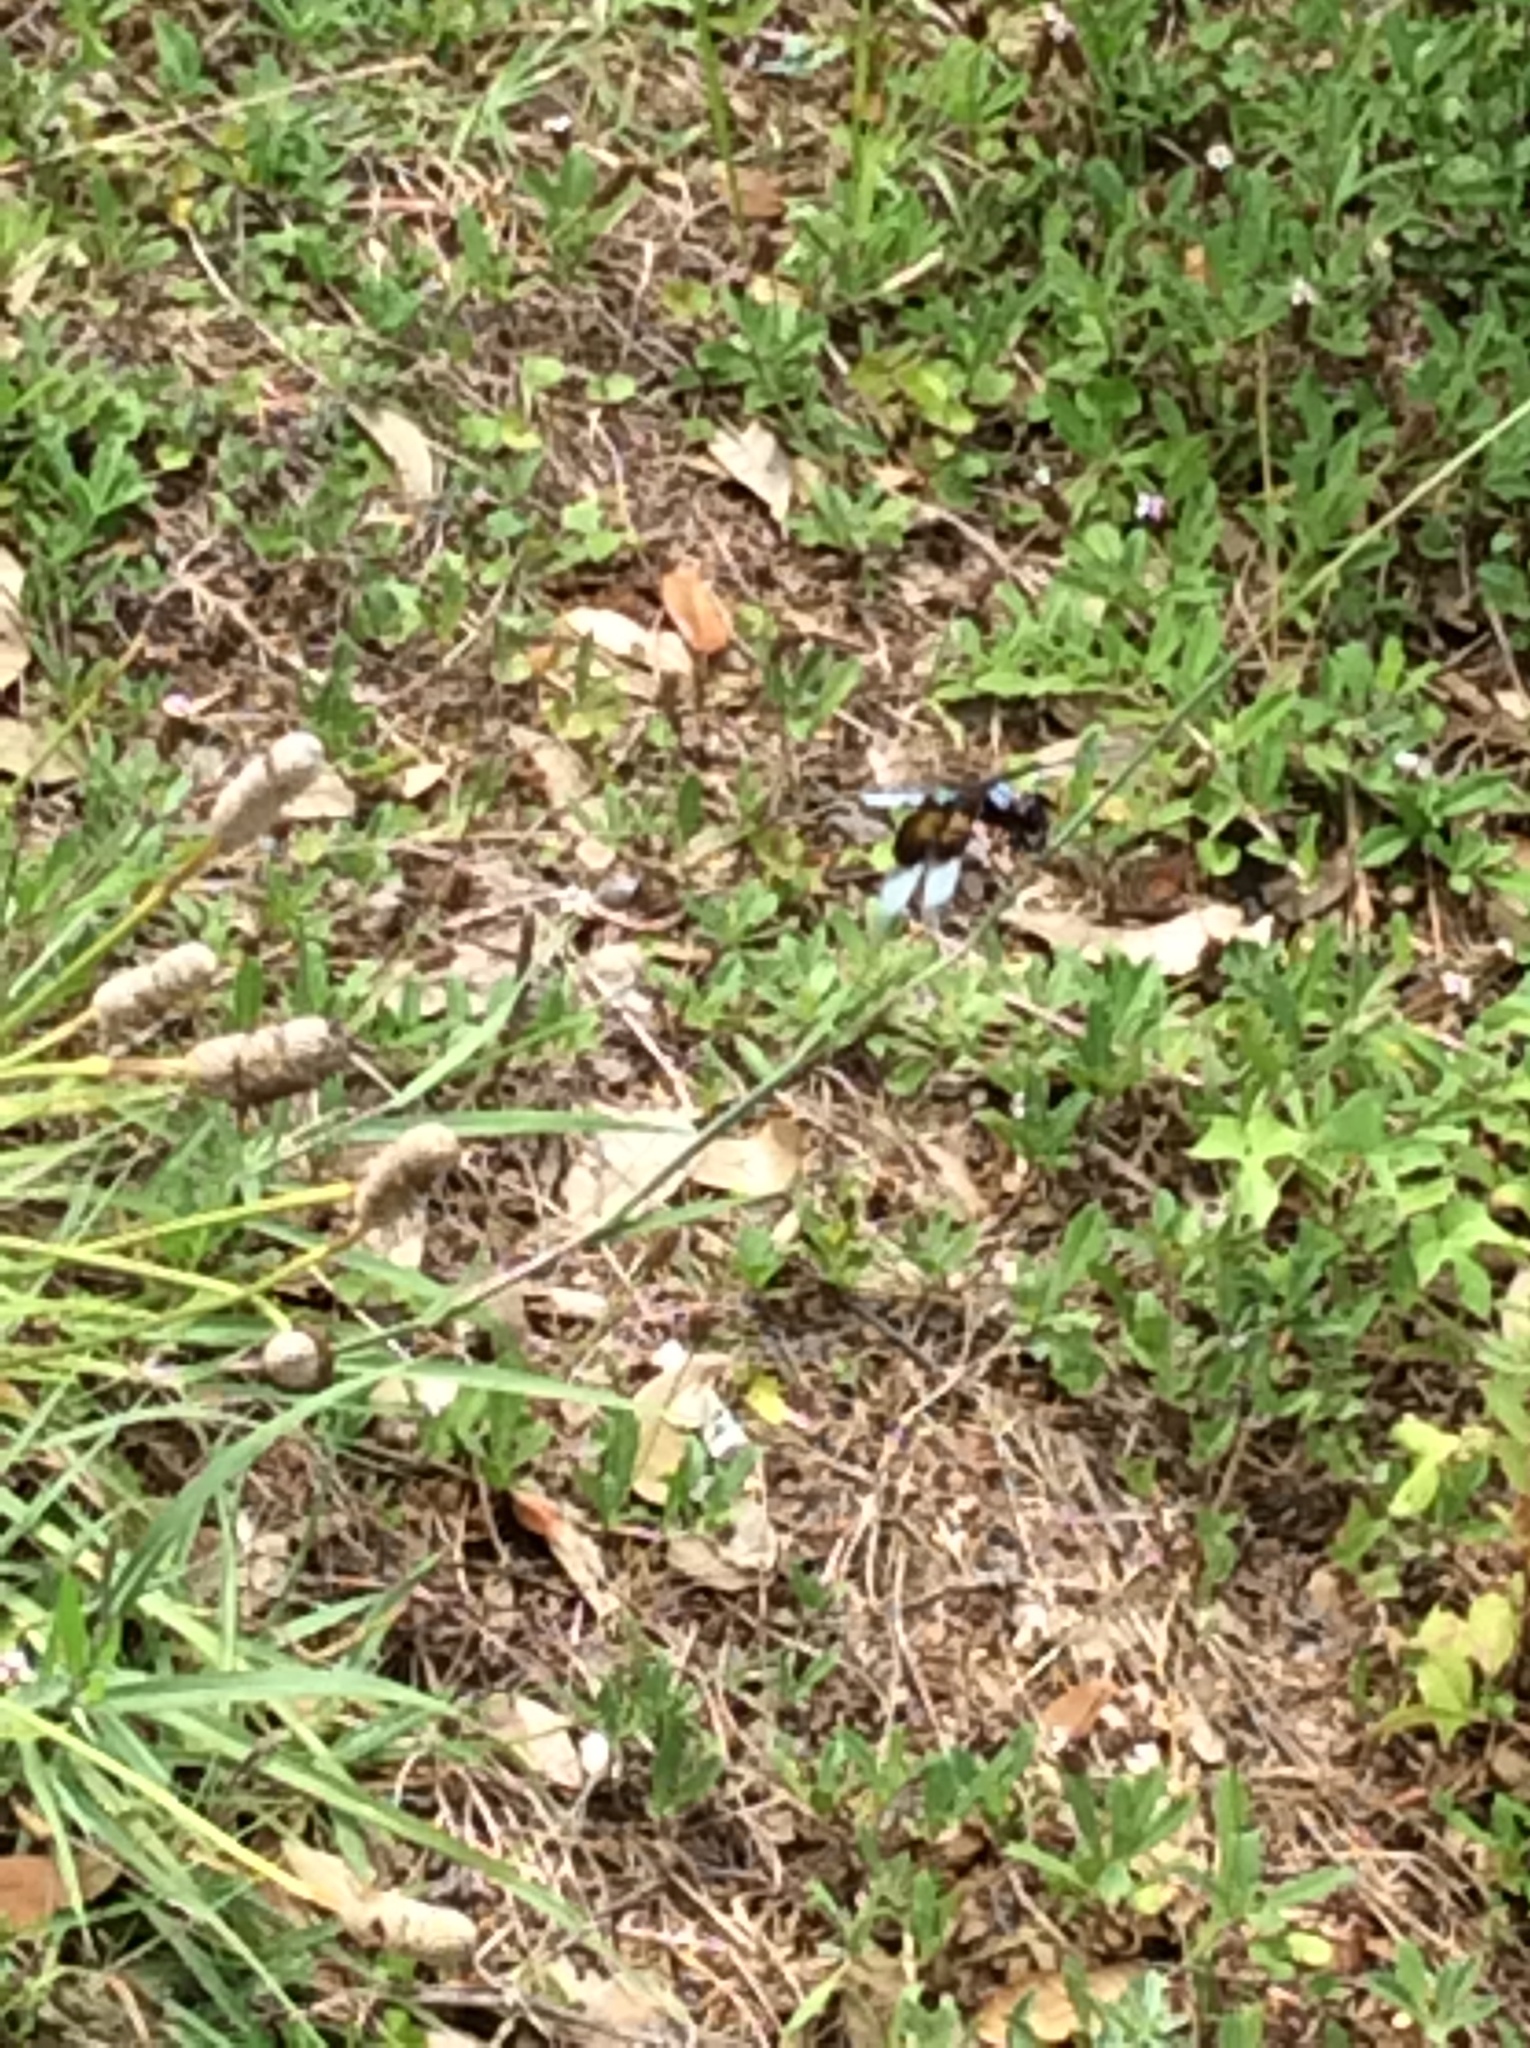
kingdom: Animalia
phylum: Arthropoda
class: Insecta
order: Odonata
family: Libellulidae
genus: Libellula
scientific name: Libellula luctuosa
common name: Widow skimmer
